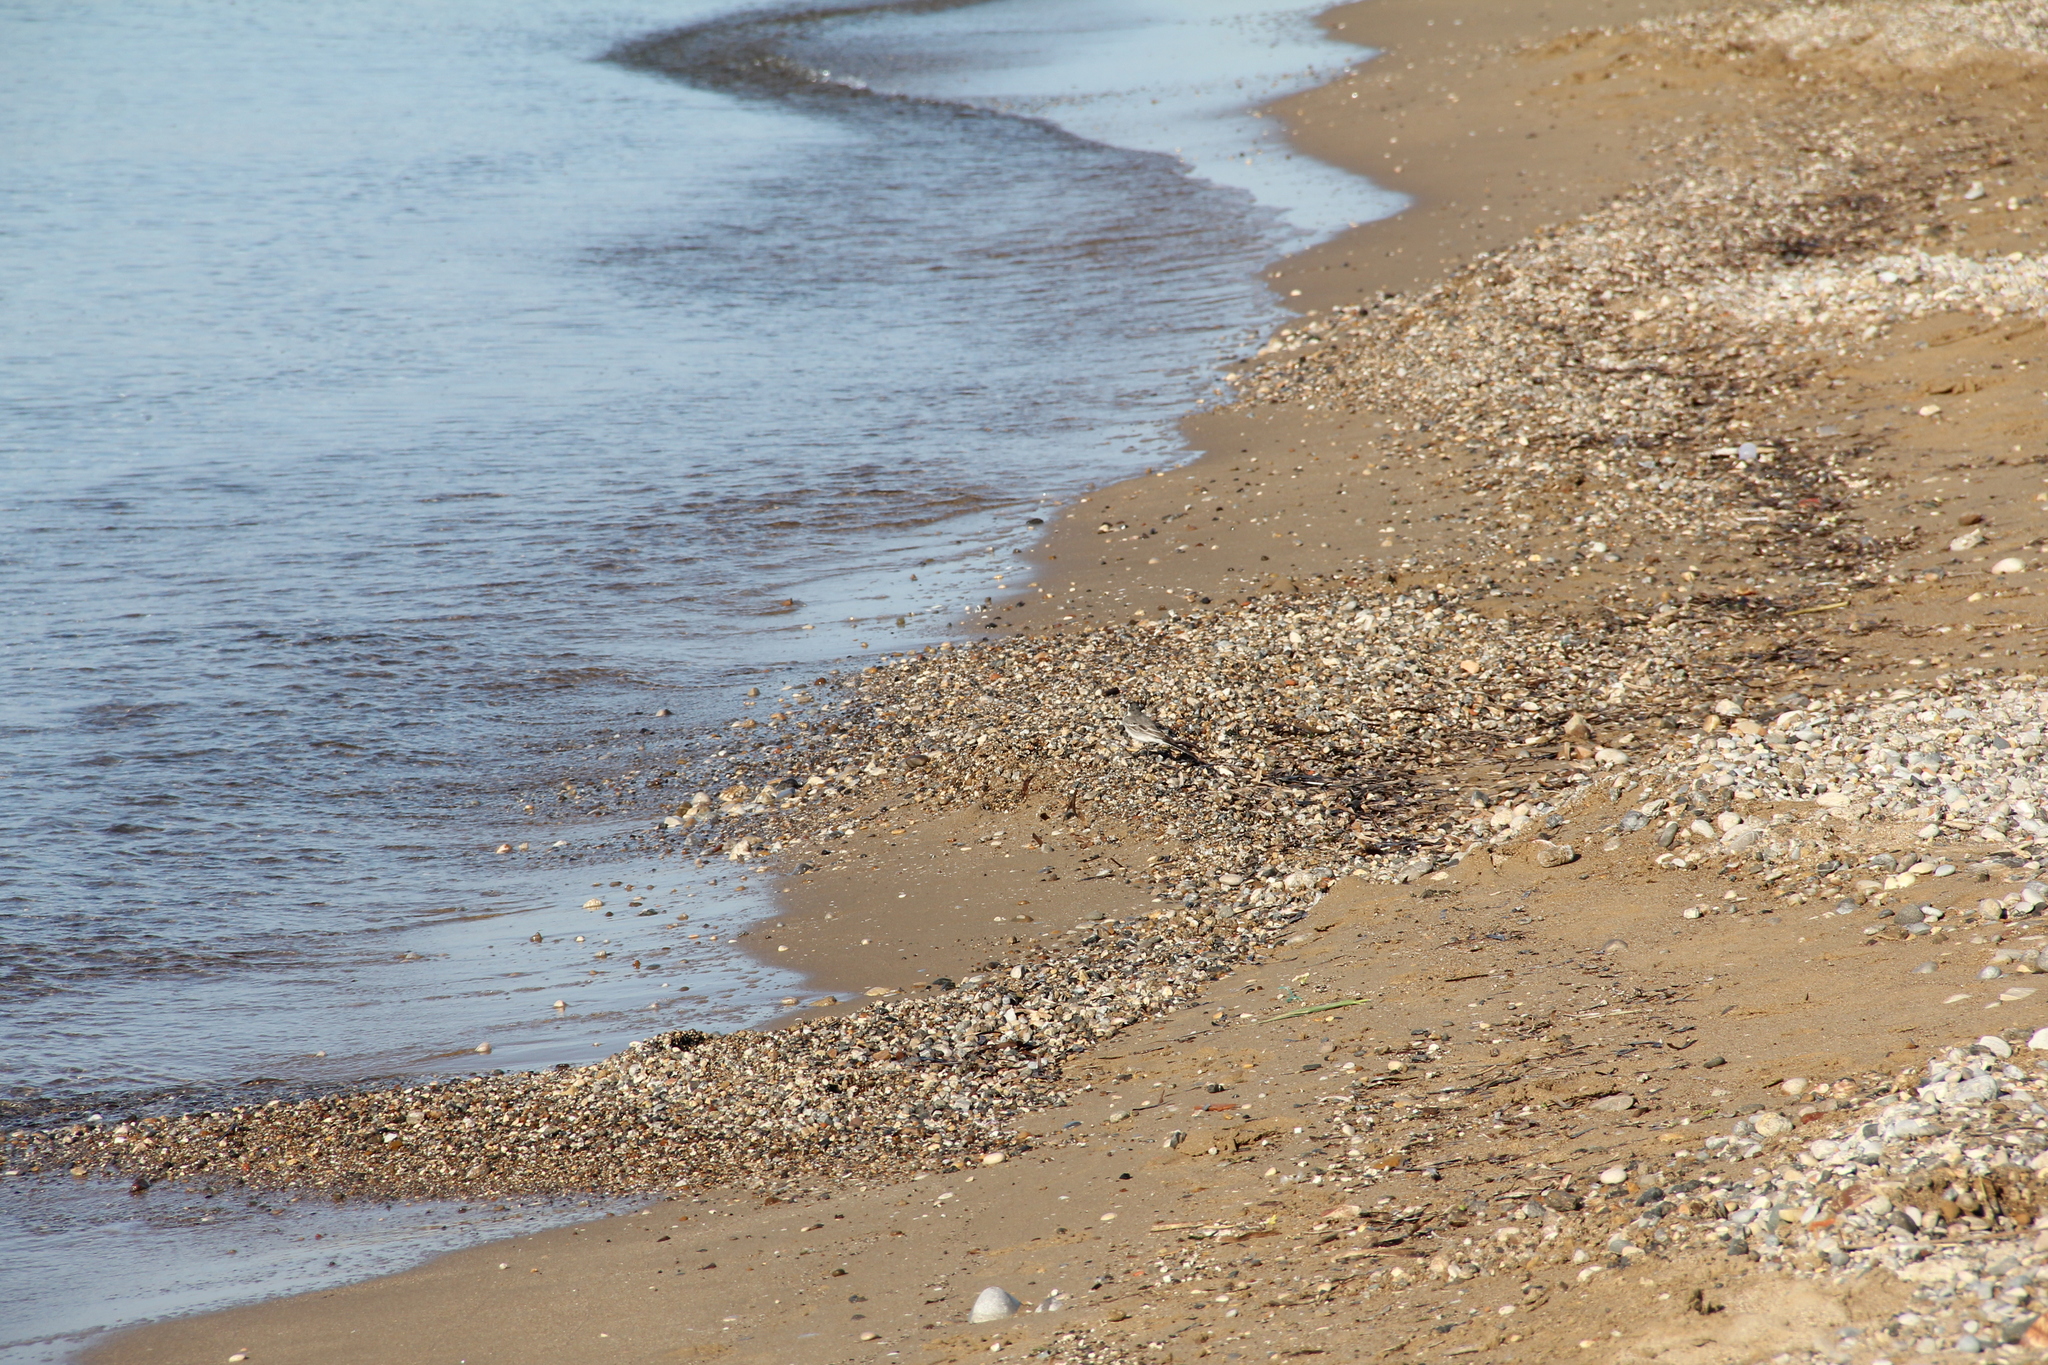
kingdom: Animalia
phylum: Chordata
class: Aves
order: Passeriformes
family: Motacillidae
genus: Motacilla
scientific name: Motacilla alba
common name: White wagtail
